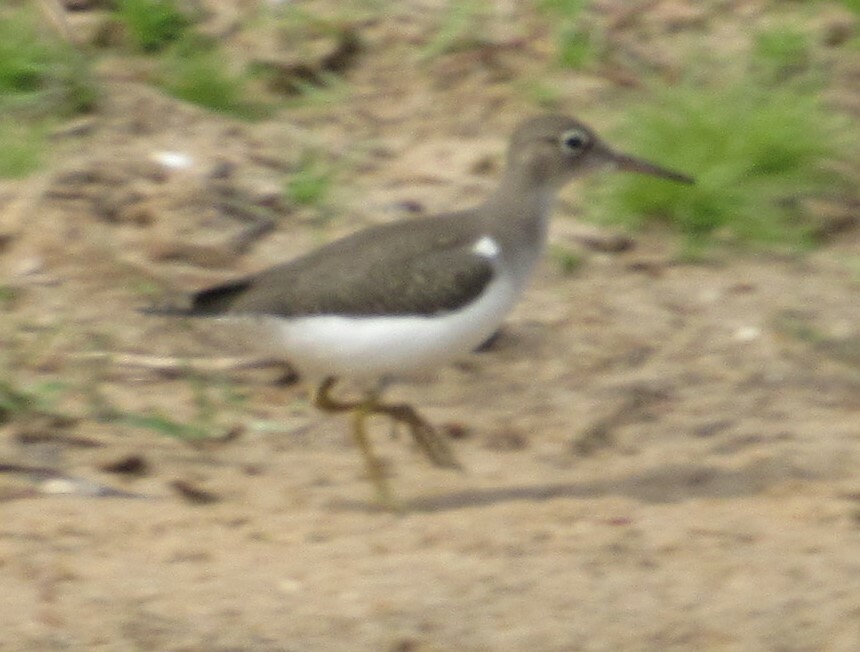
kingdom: Animalia
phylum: Chordata
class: Aves
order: Charadriiformes
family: Scolopacidae
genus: Actitis
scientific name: Actitis macularius
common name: Spotted sandpiper
